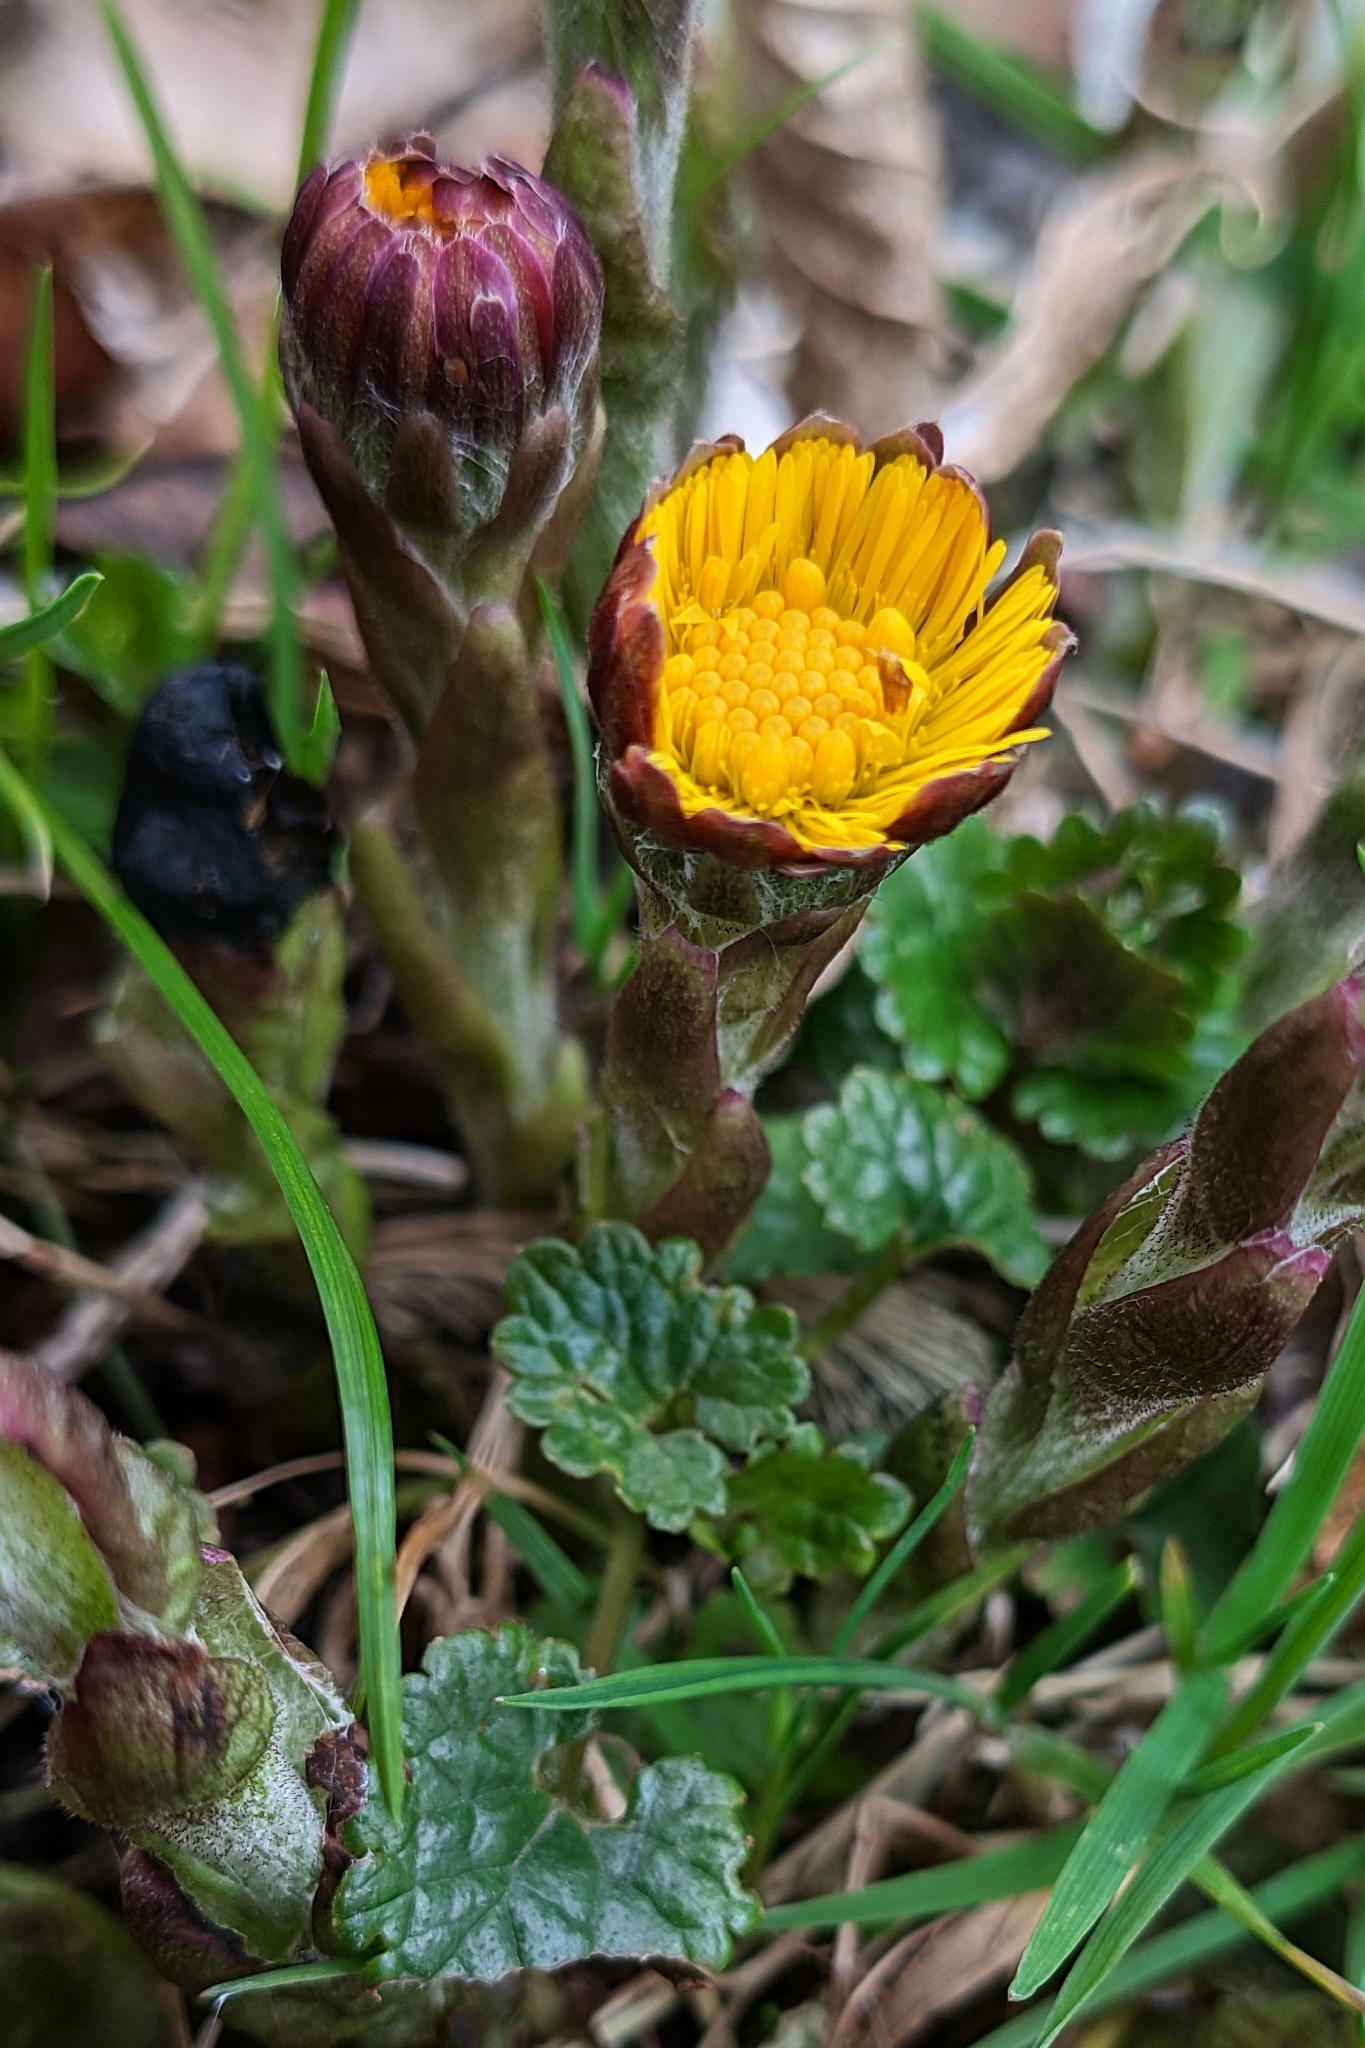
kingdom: Plantae
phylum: Tracheophyta
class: Magnoliopsida
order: Asterales
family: Asteraceae
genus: Tussilago
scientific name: Tussilago farfara
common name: Coltsfoot
